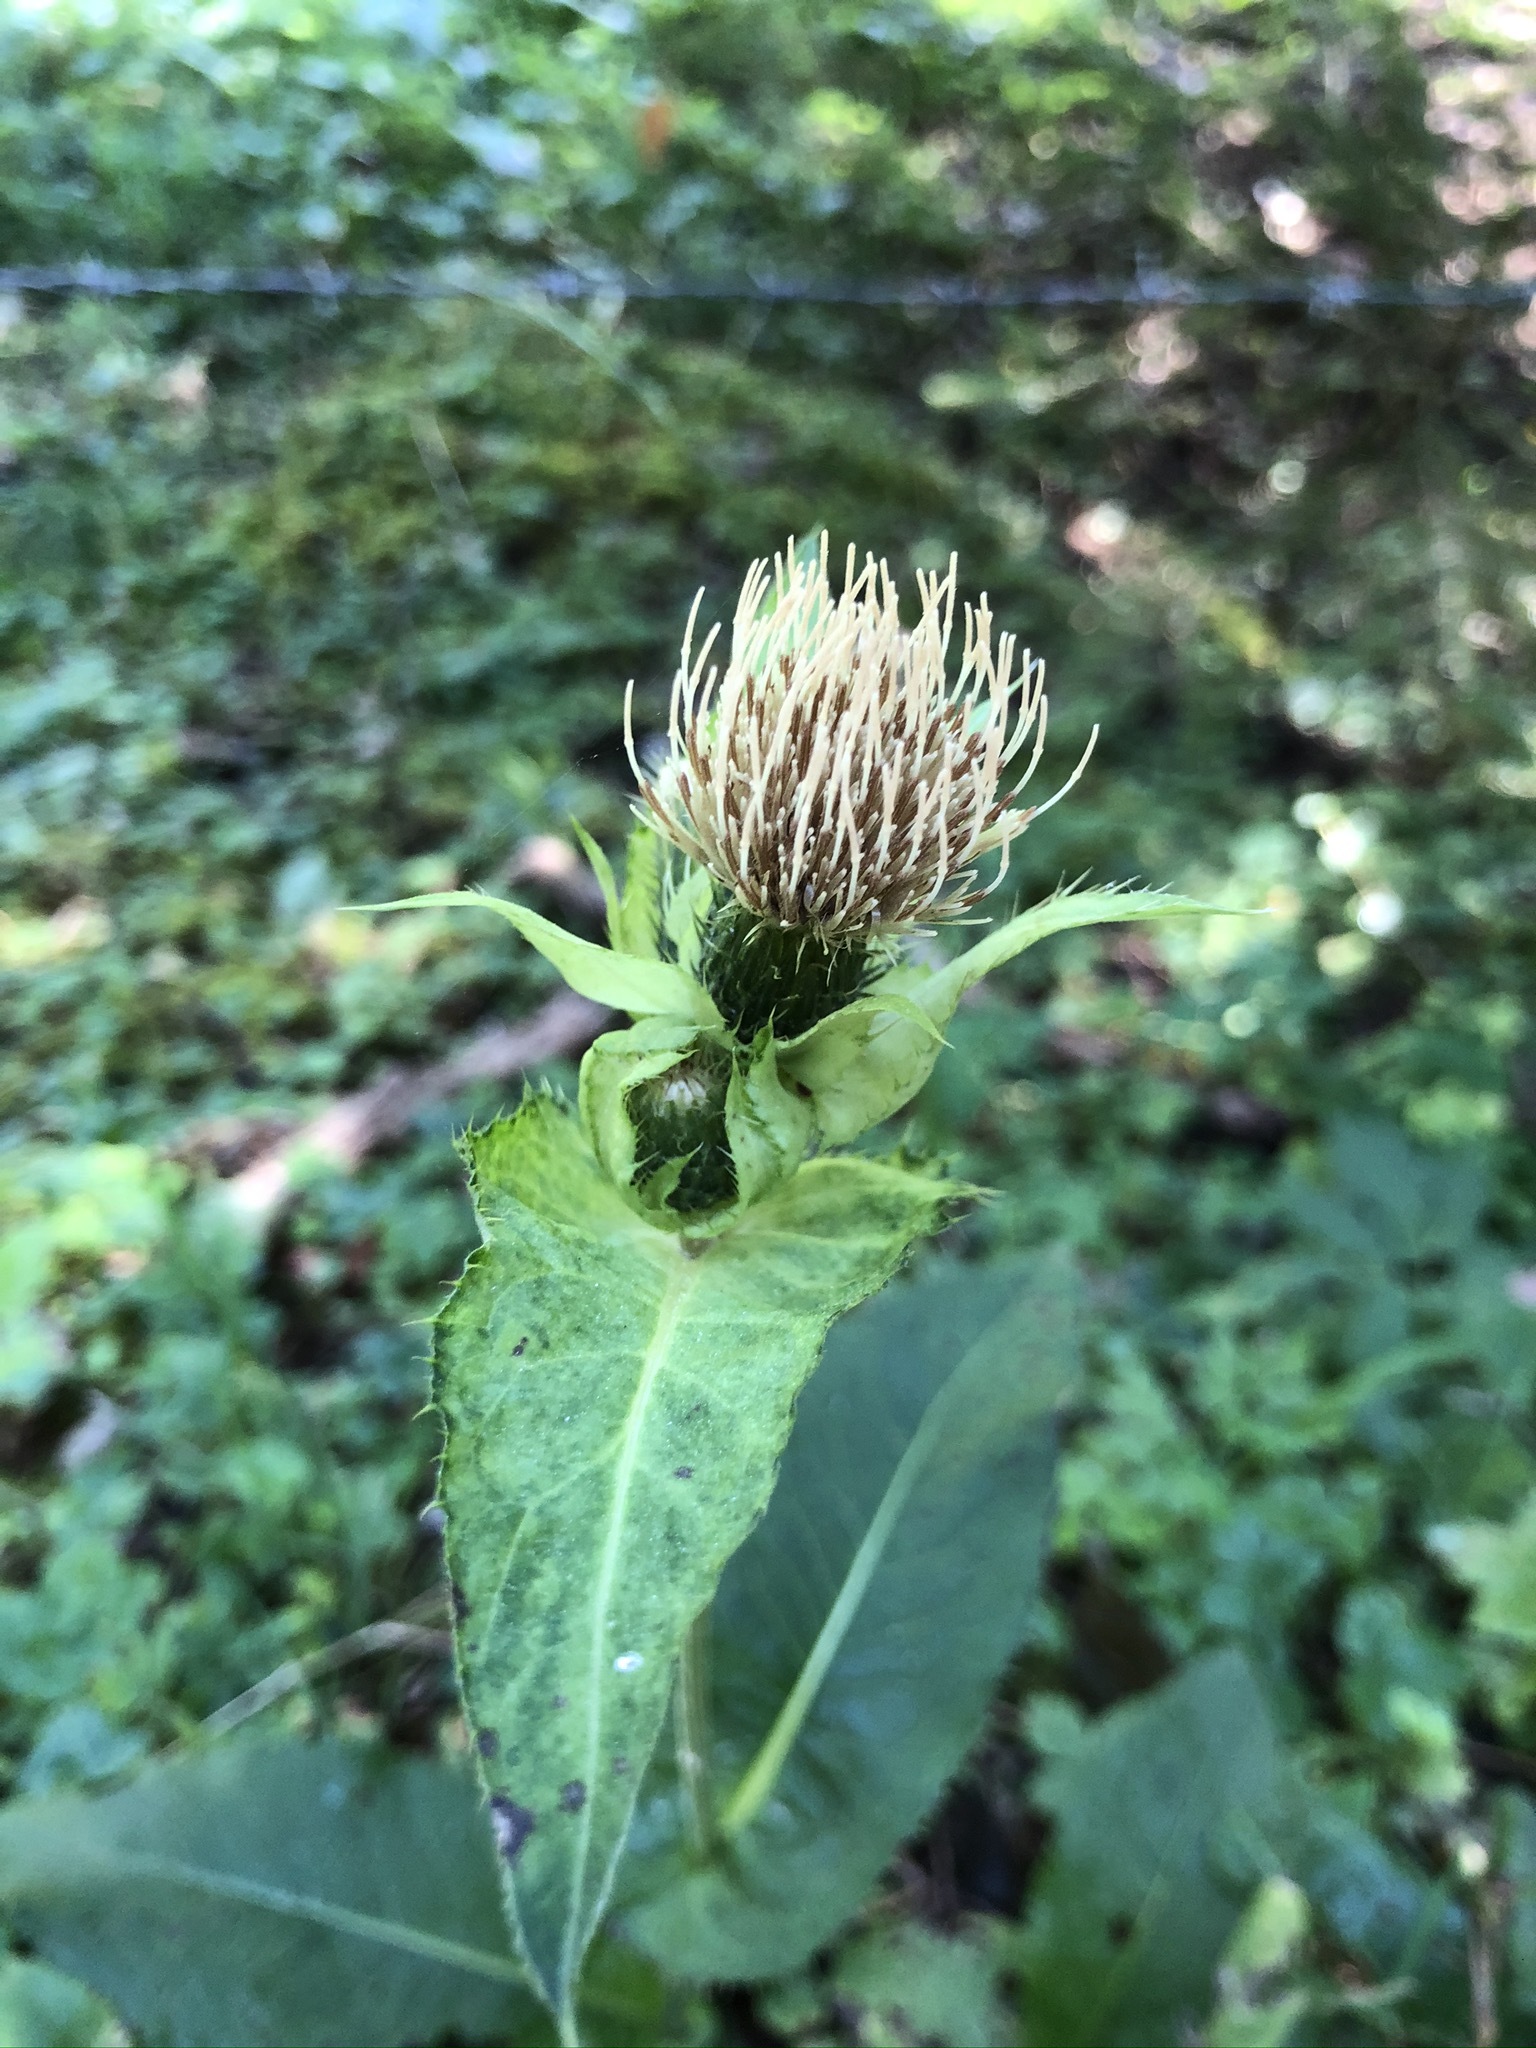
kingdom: Plantae
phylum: Tracheophyta
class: Magnoliopsida
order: Asterales
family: Asteraceae
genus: Cirsium
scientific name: Cirsium oleraceum
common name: Cabbage thistle
